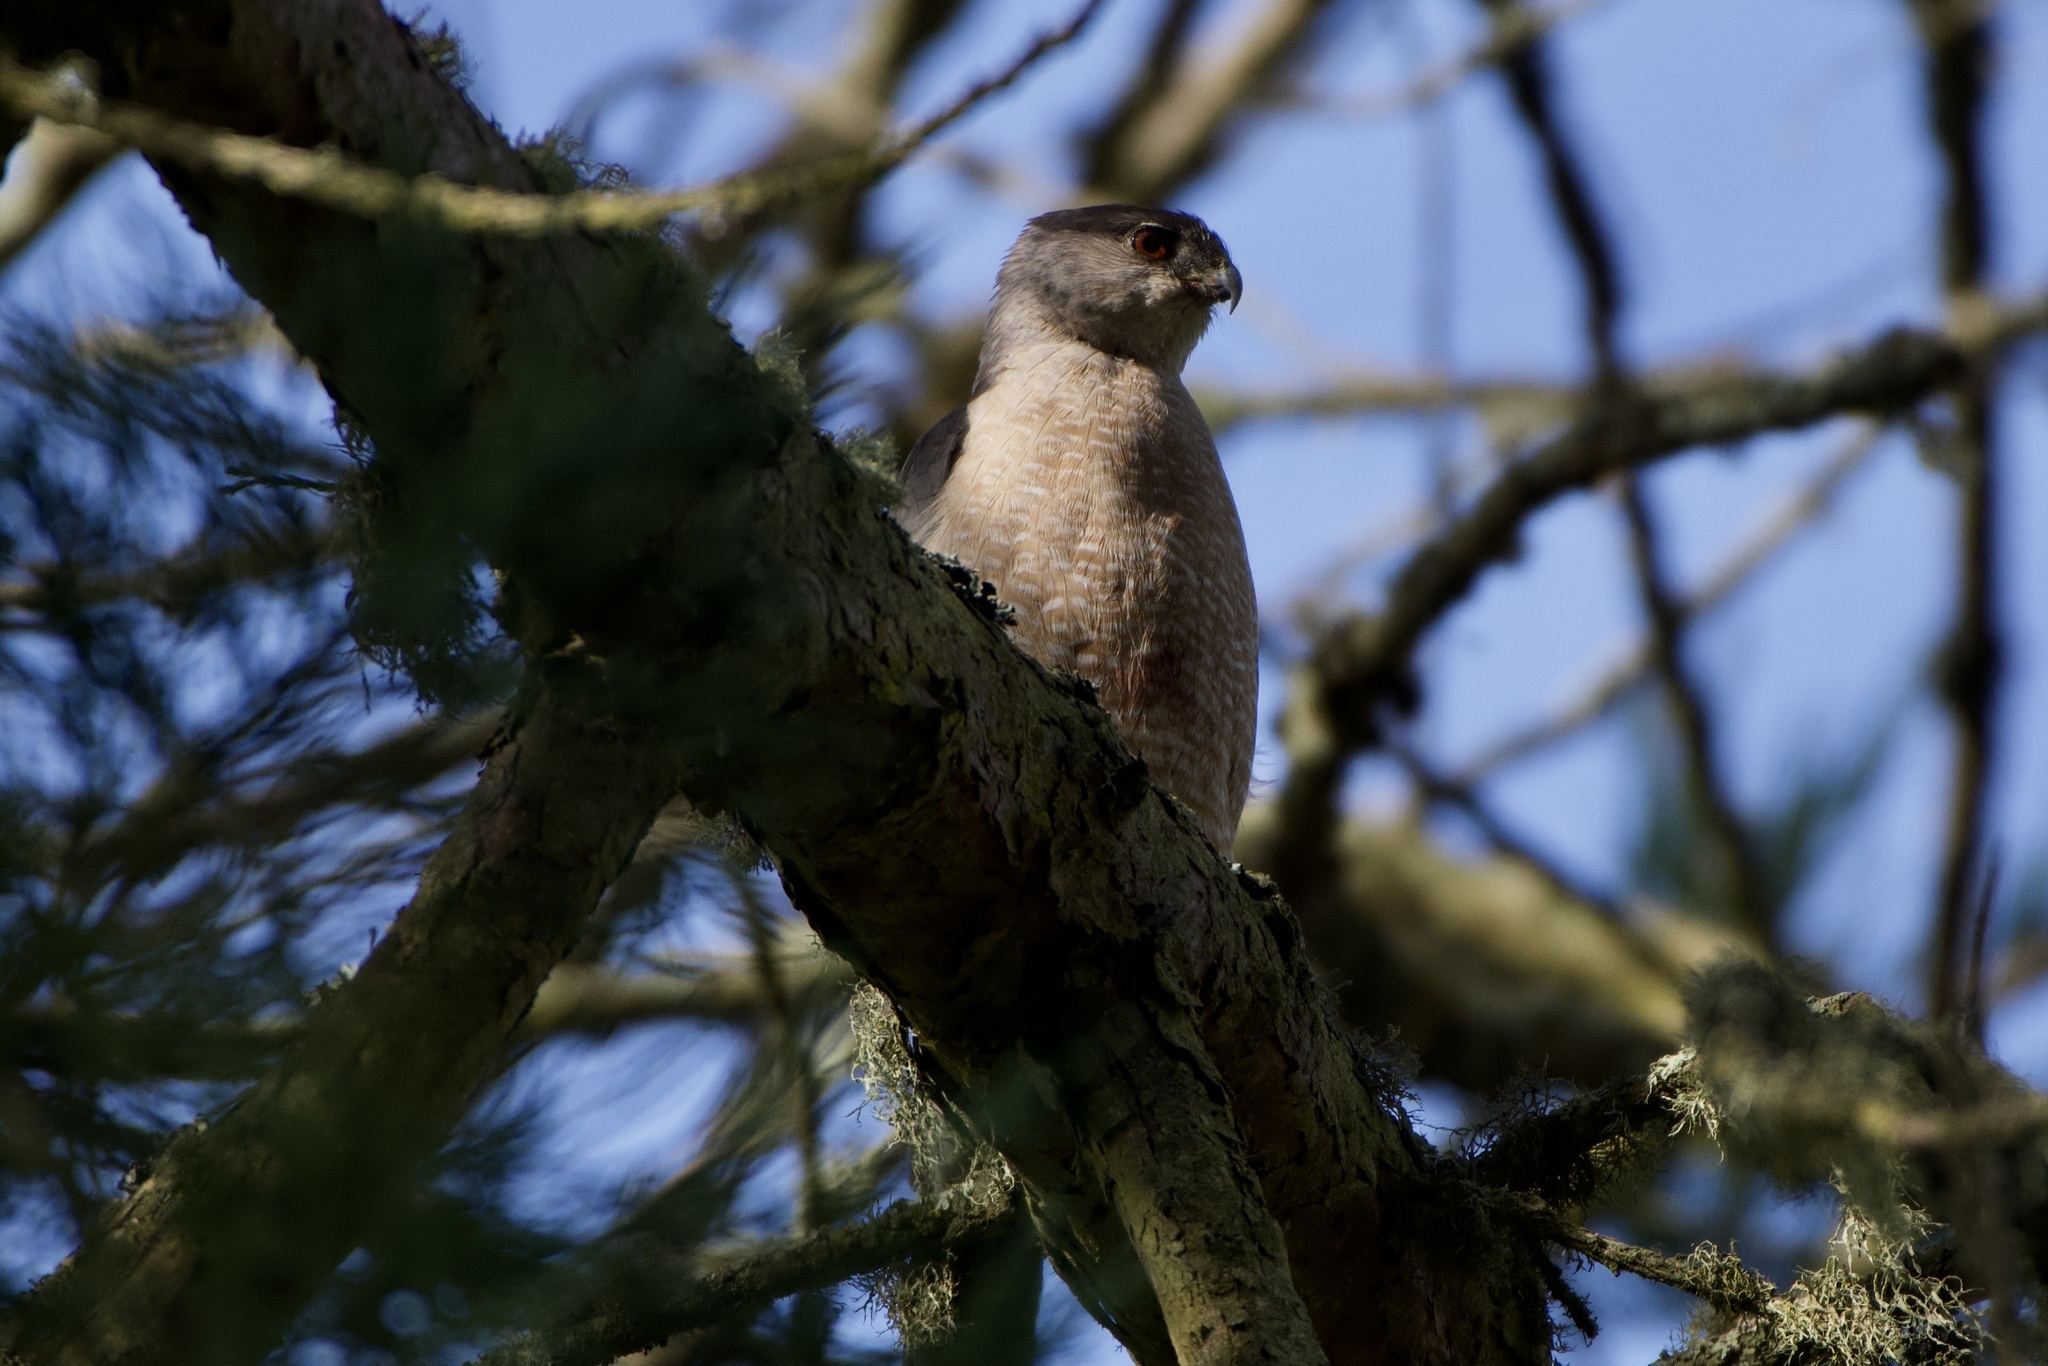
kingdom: Animalia
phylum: Chordata
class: Aves
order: Accipitriformes
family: Accipitridae
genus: Accipiter
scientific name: Accipiter cooperii
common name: Cooper's hawk
